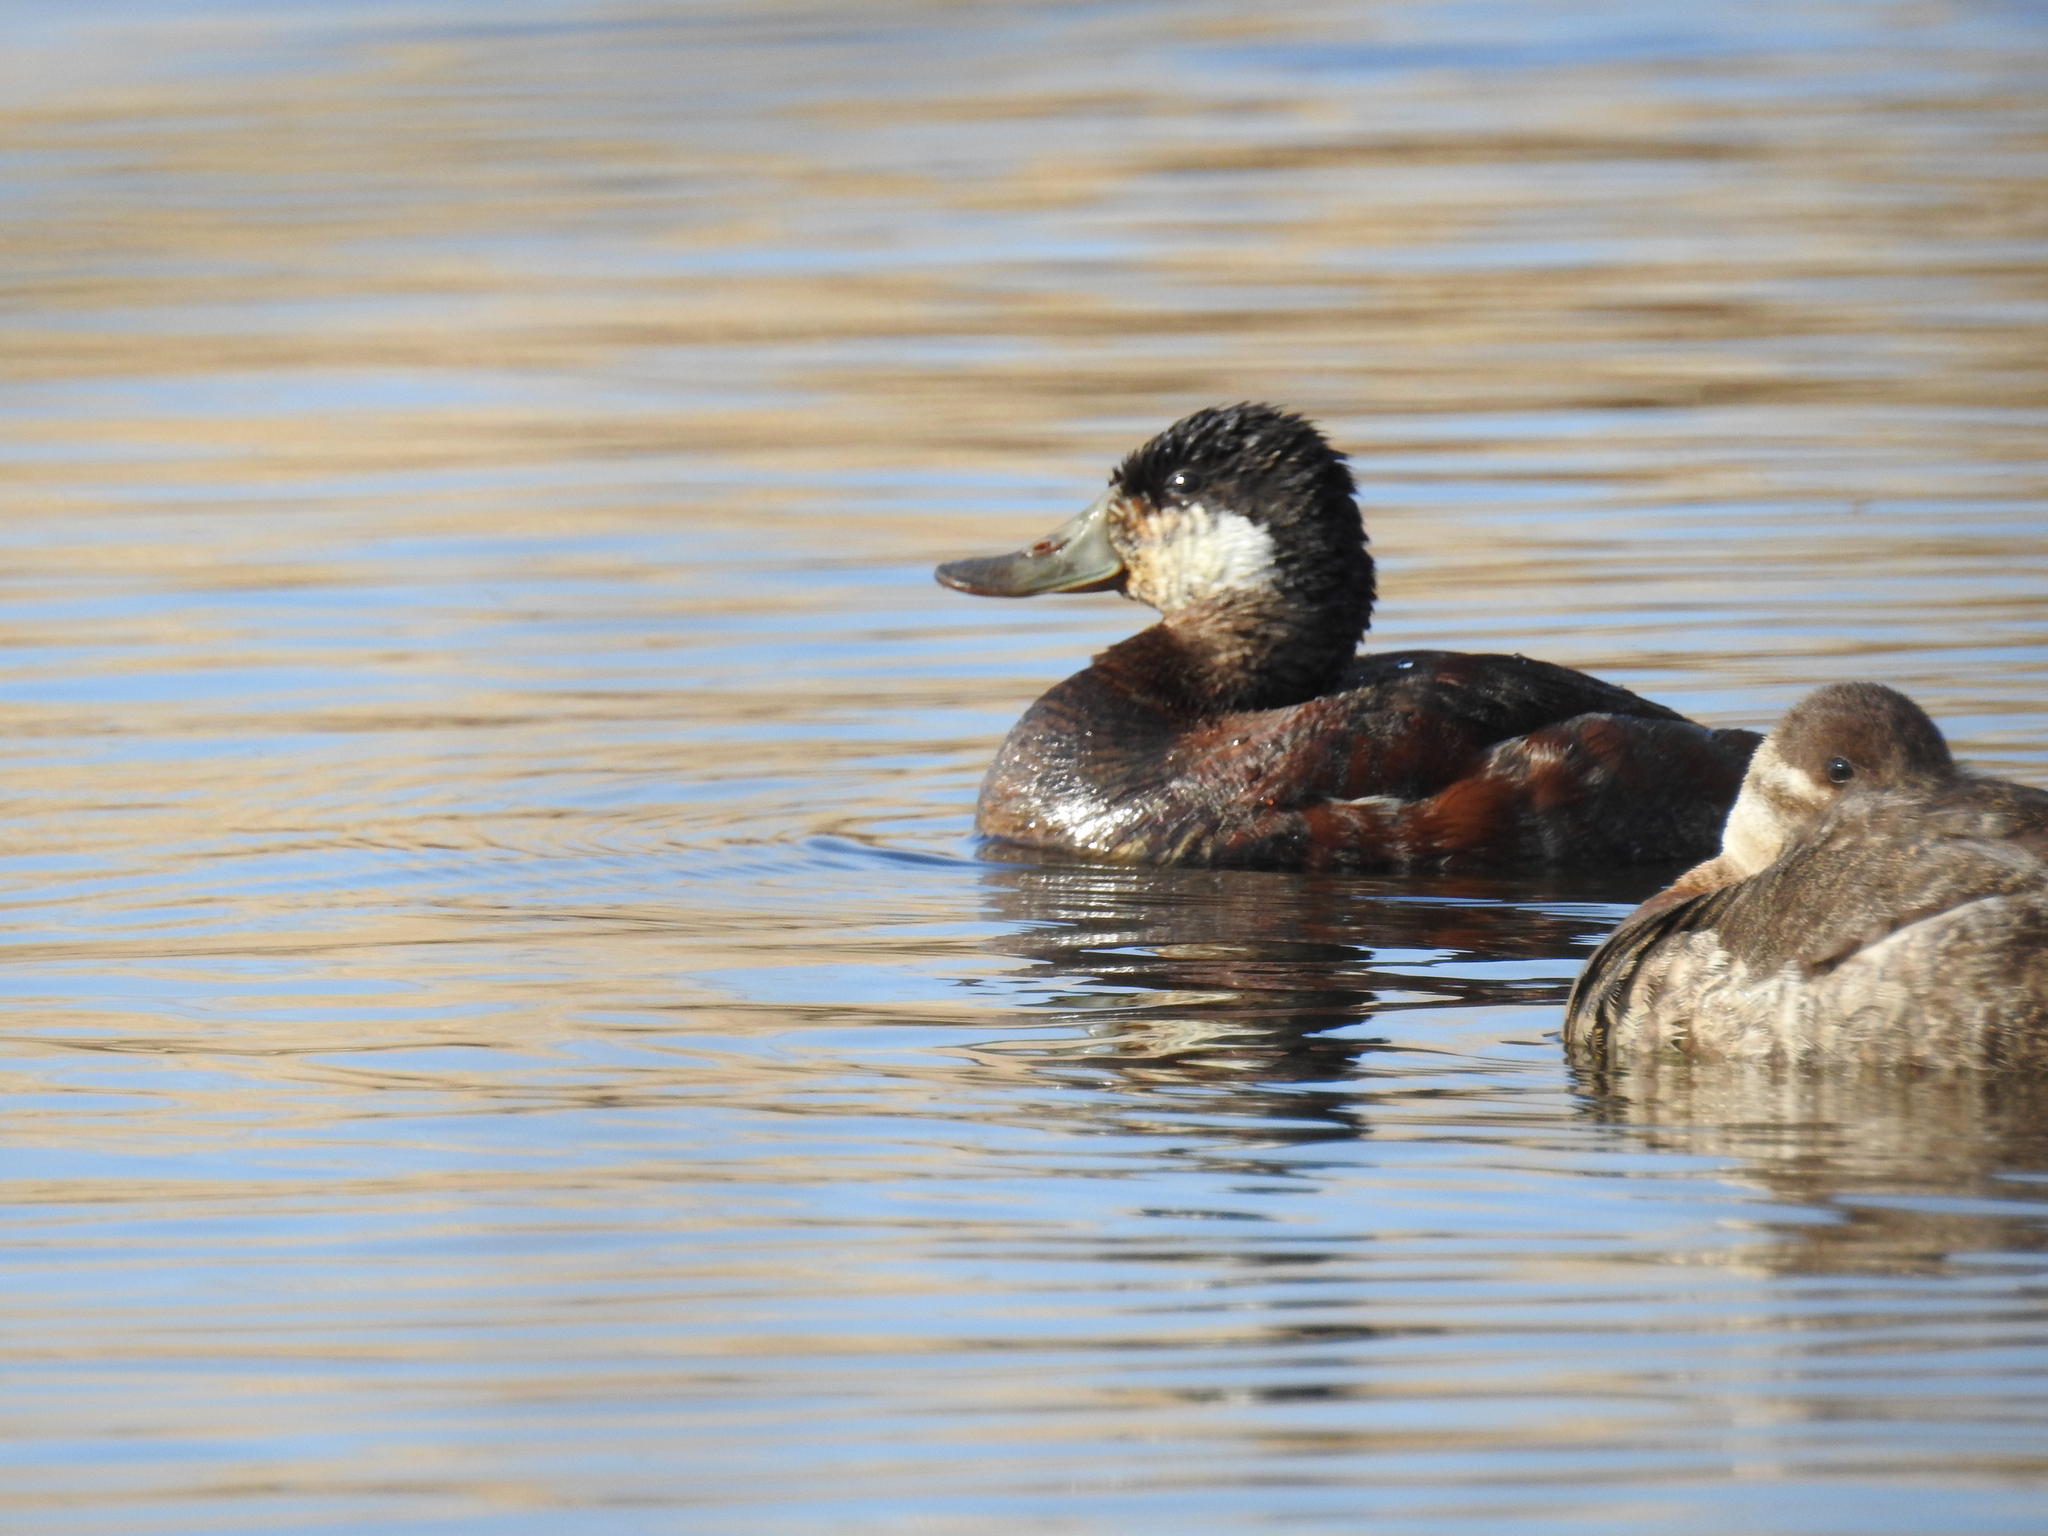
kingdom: Animalia
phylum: Chordata
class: Aves
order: Anseriformes
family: Anatidae
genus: Oxyura
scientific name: Oxyura jamaicensis
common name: Ruddy duck
